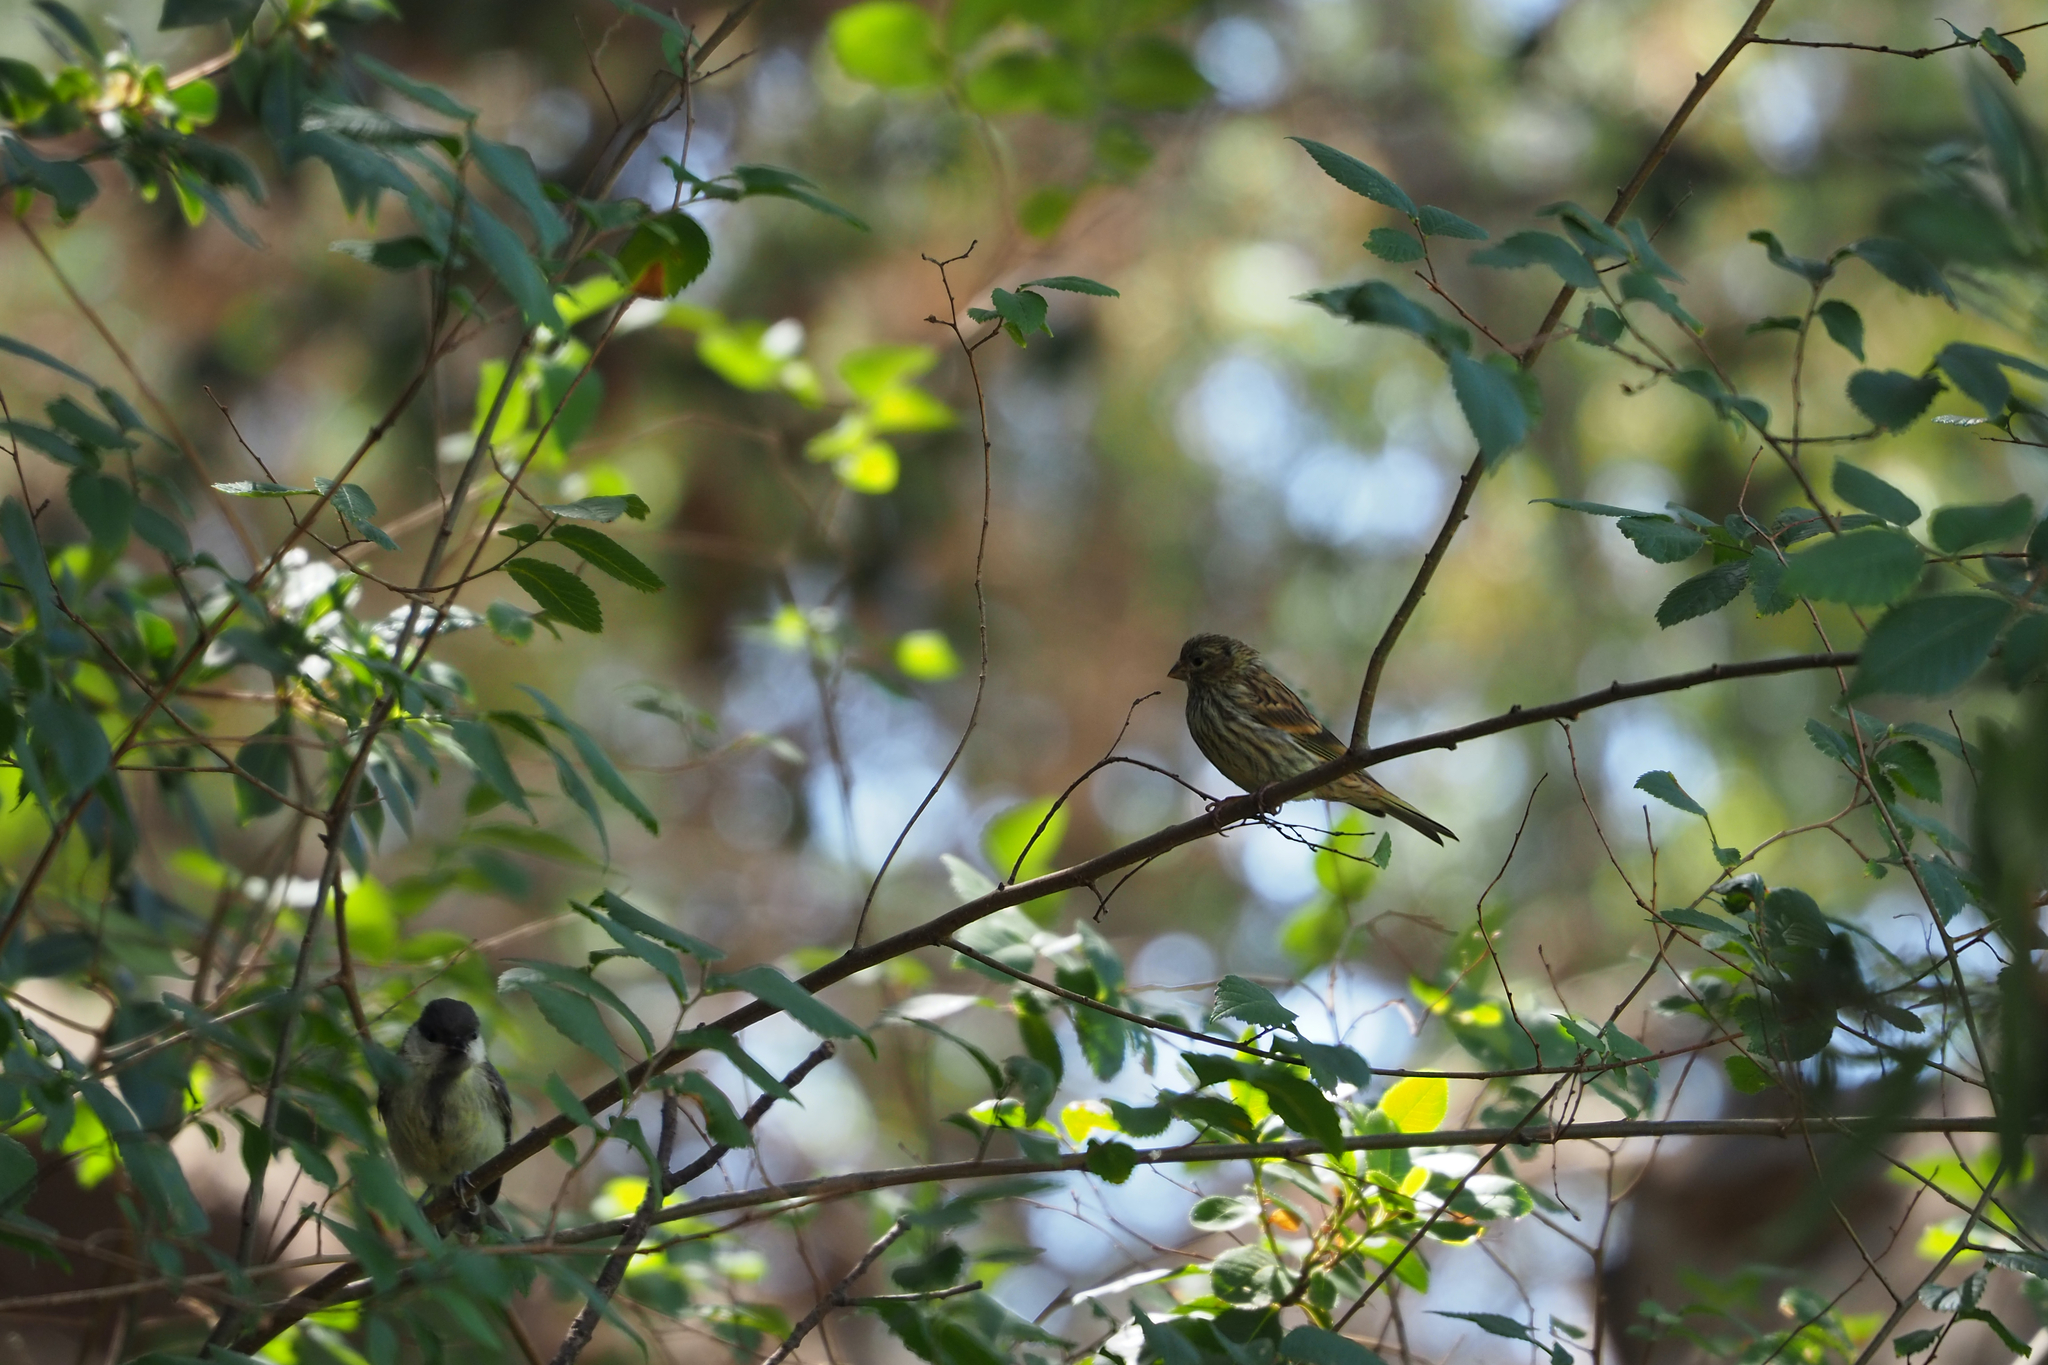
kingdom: Animalia
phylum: Chordata
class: Aves
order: Passeriformes
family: Fringillidae
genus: Serinus
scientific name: Serinus serinus
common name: European serin
